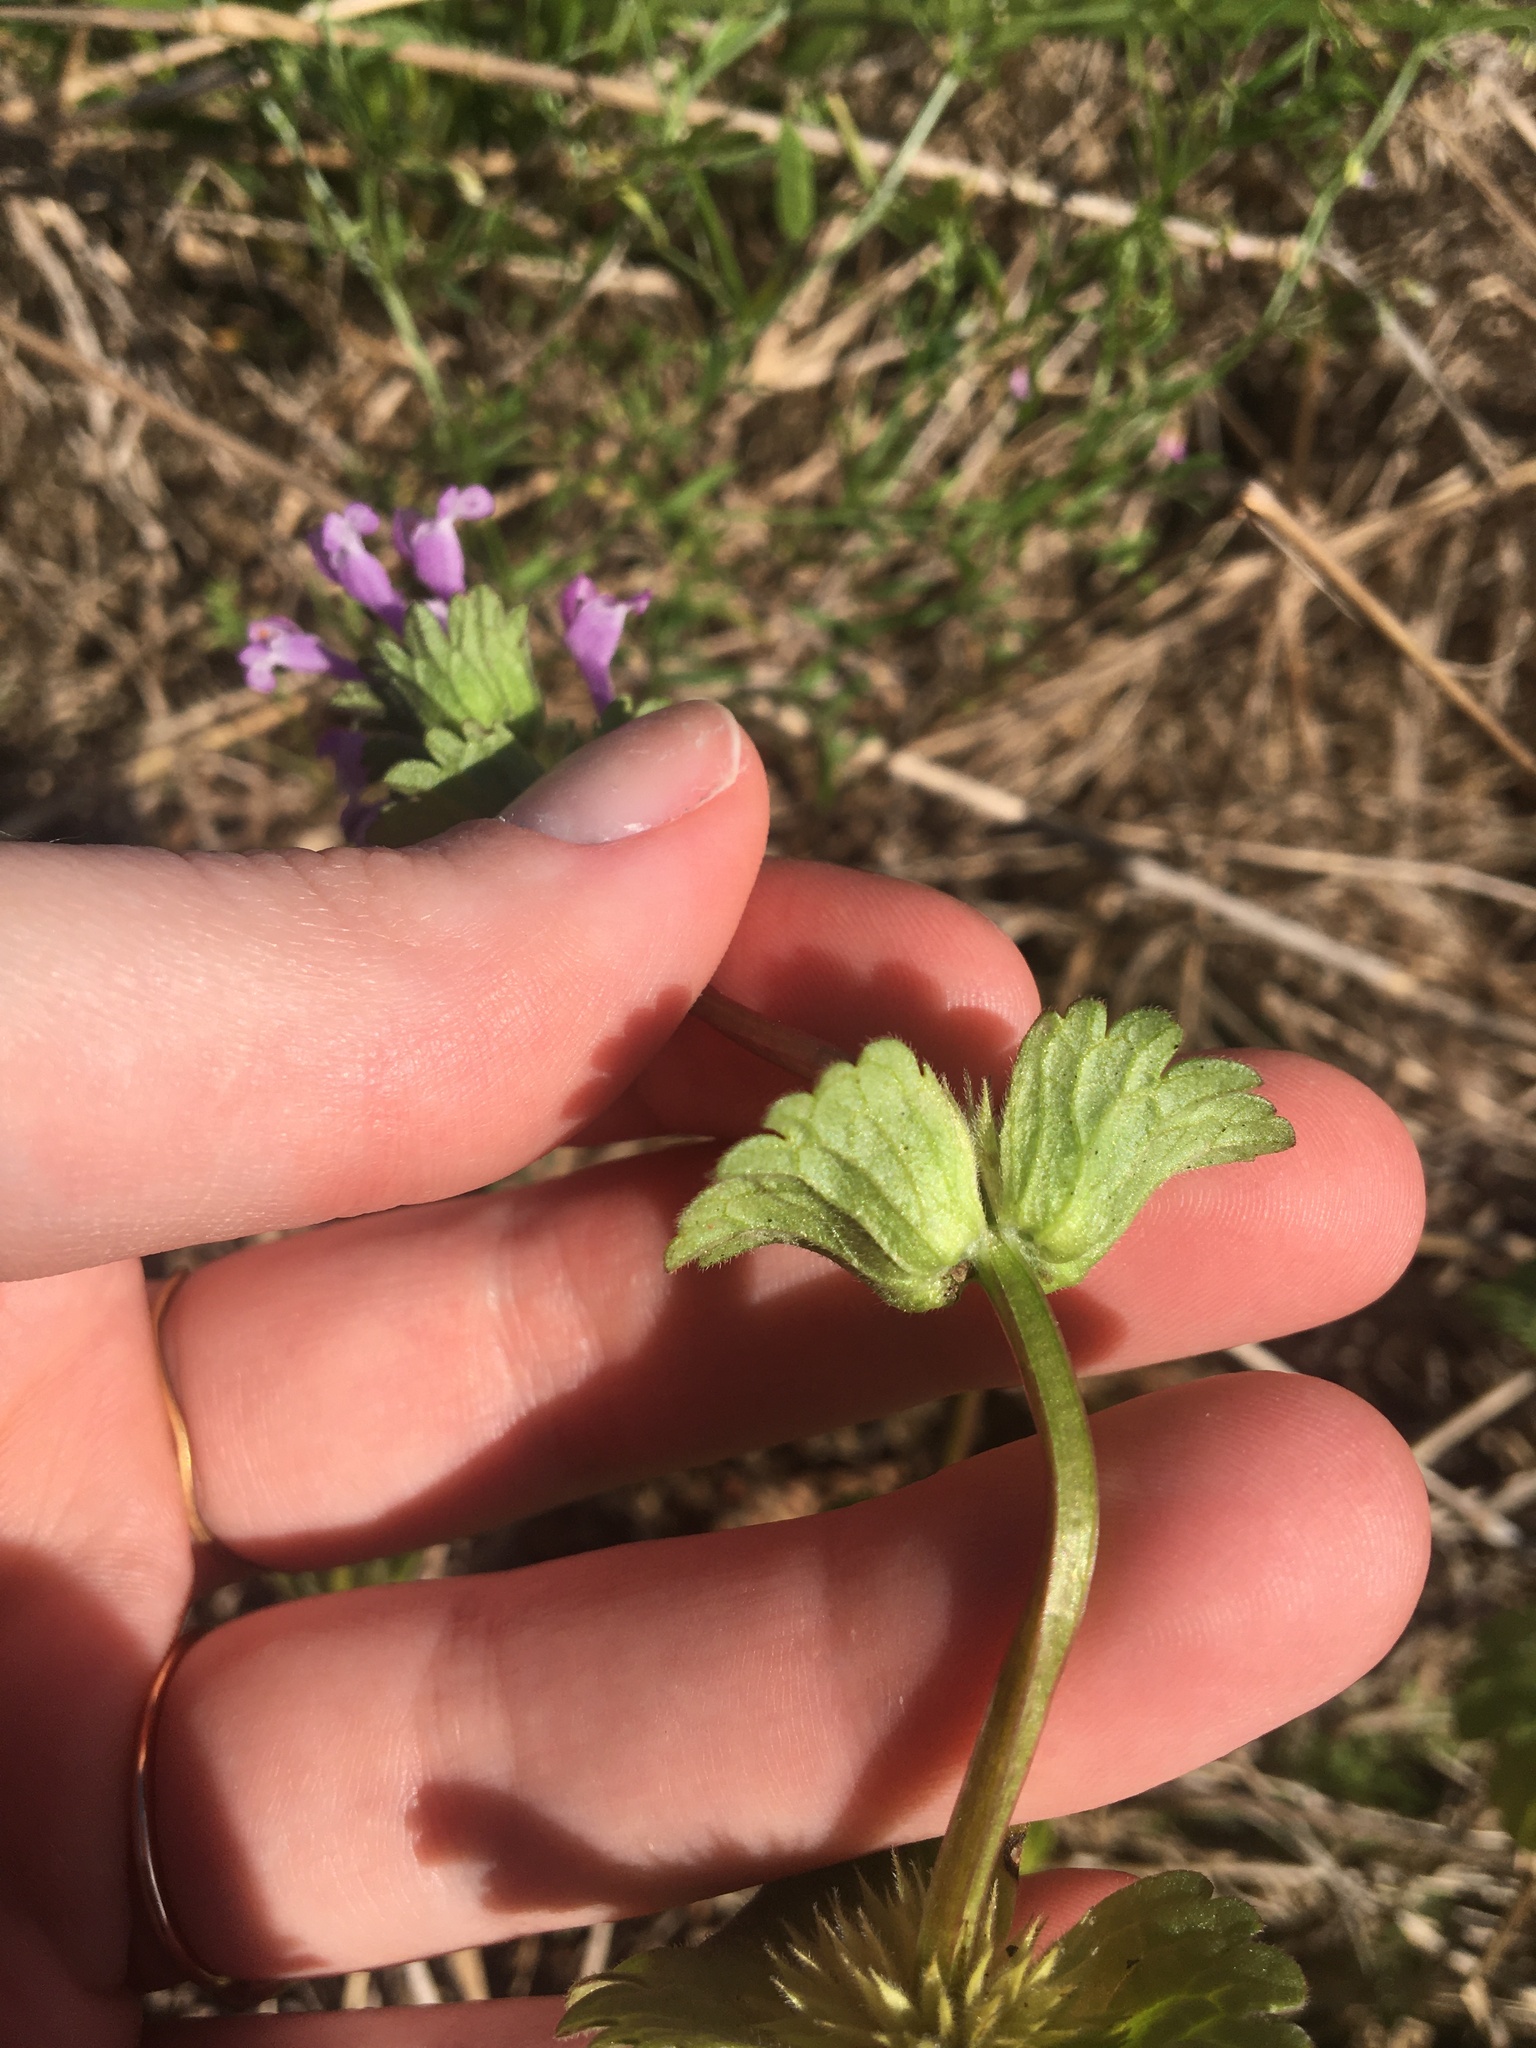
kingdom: Plantae
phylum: Tracheophyta
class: Magnoliopsida
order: Lamiales
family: Lamiaceae
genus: Lamium
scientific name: Lamium amplexicaule
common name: Henbit dead-nettle
